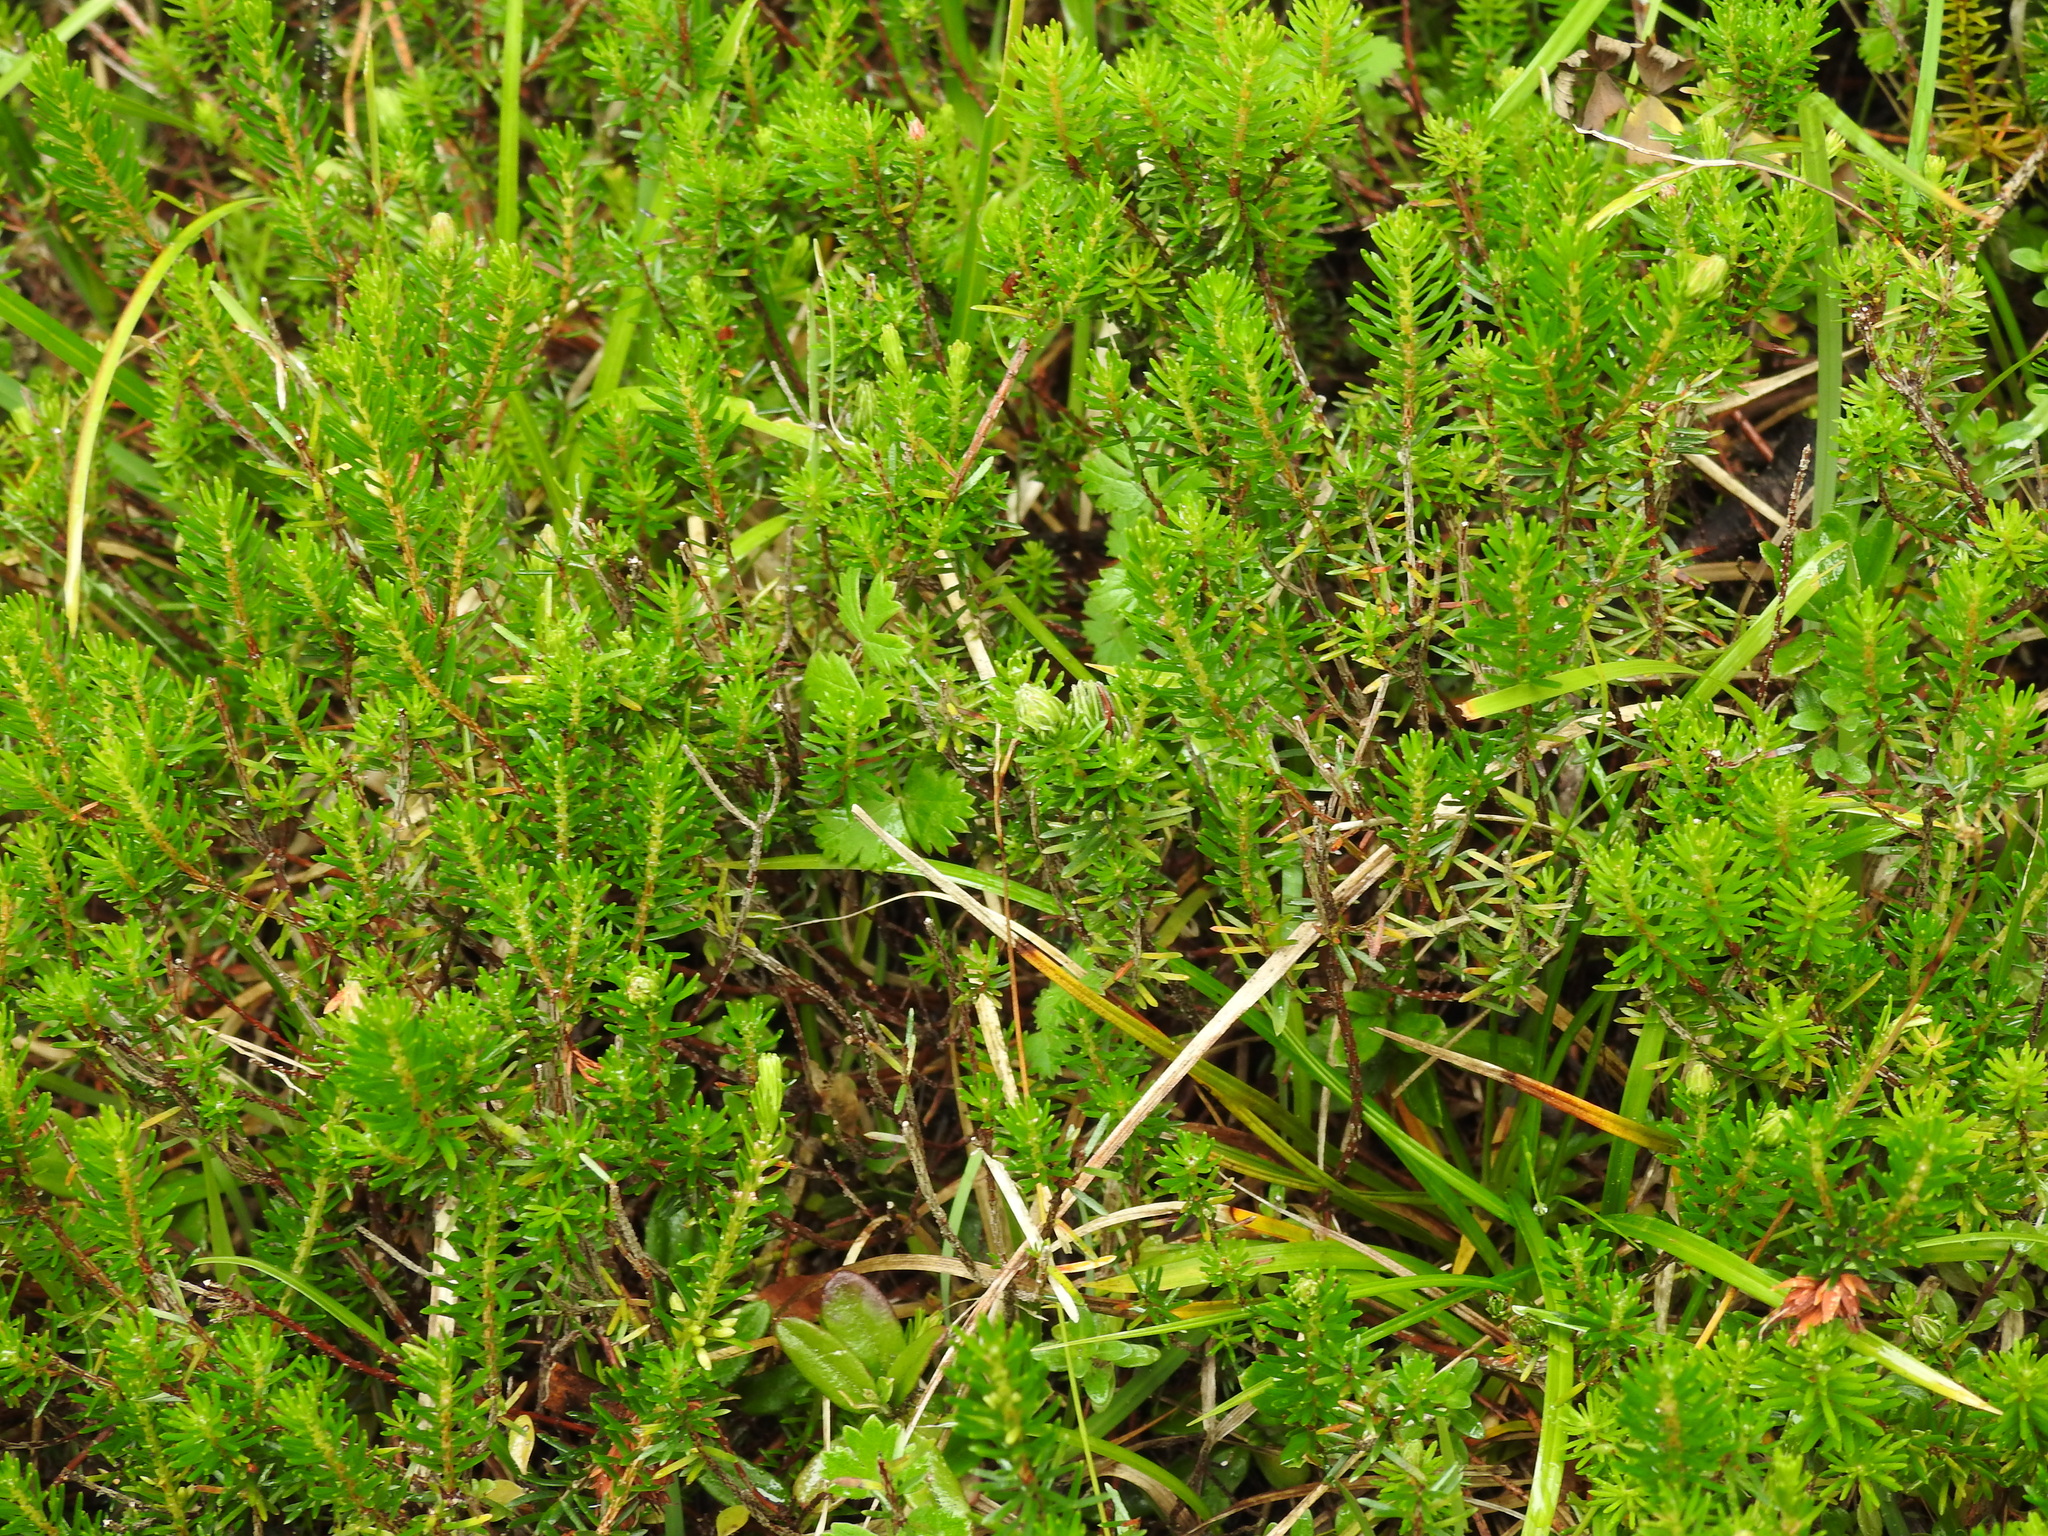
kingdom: Plantae
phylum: Tracheophyta
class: Magnoliopsida
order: Ericales
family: Ericaceae
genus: Erica
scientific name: Erica carnea
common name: Winter heath
